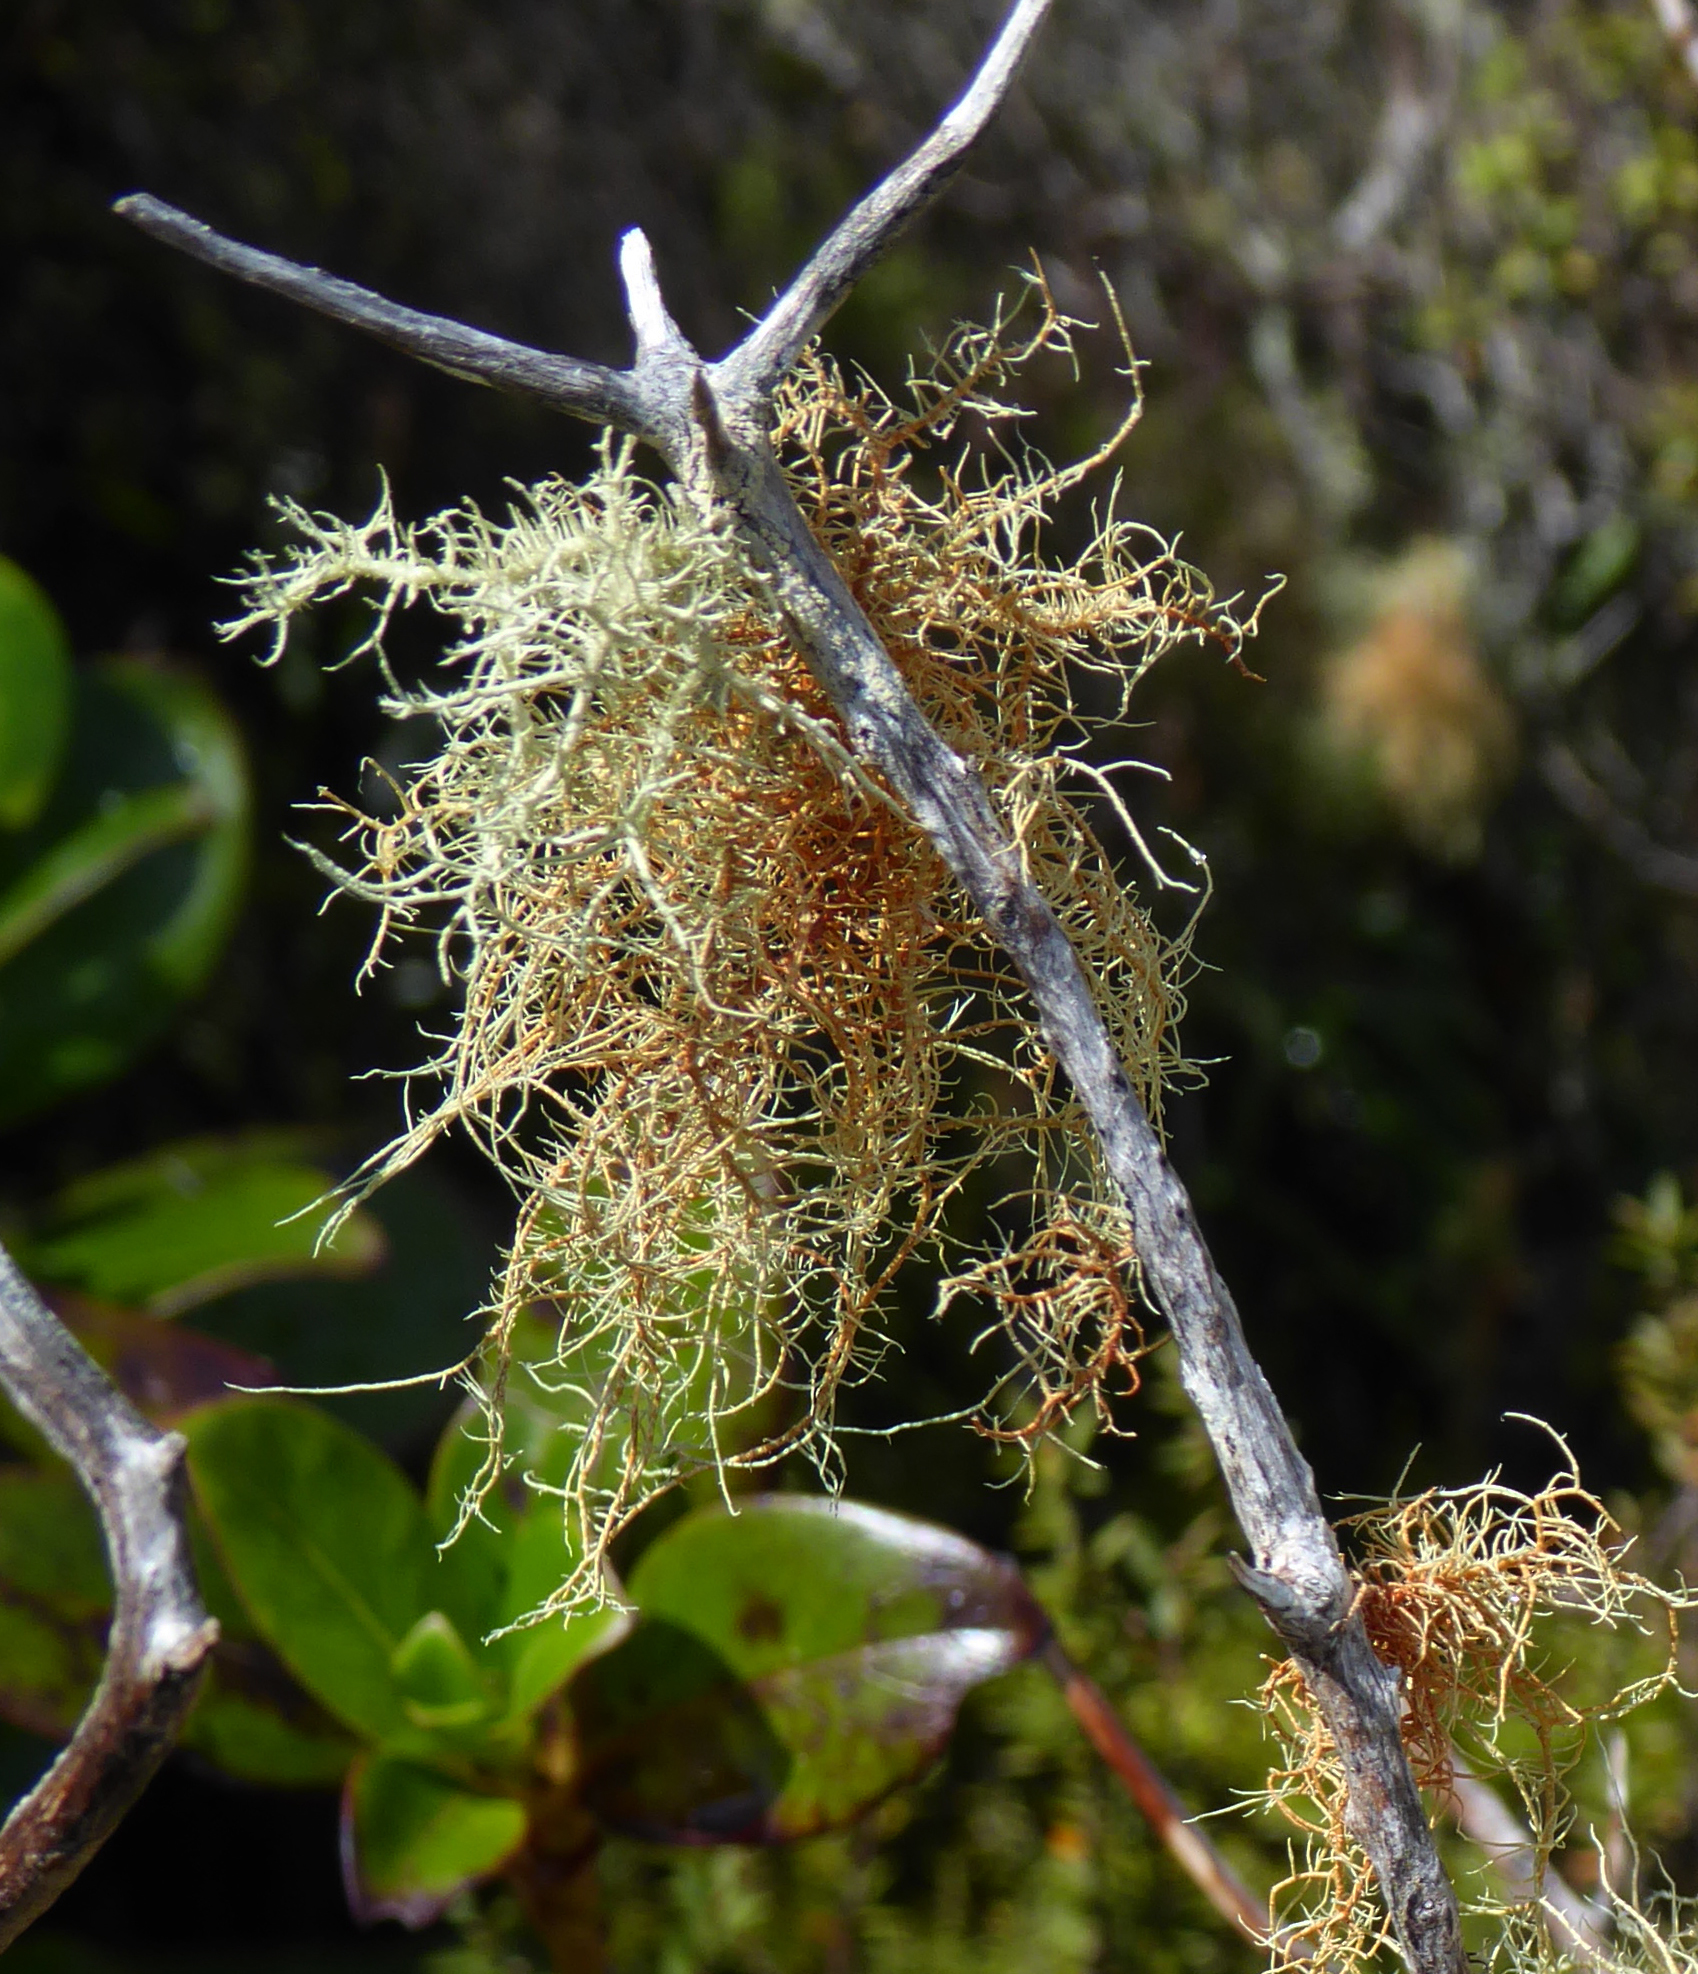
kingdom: Fungi
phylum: Ascomycota
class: Lecanoromycetes
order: Lecanorales
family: Parmeliaceae
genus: Usnea
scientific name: Usnea rubicunda
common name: Red beard lichen
